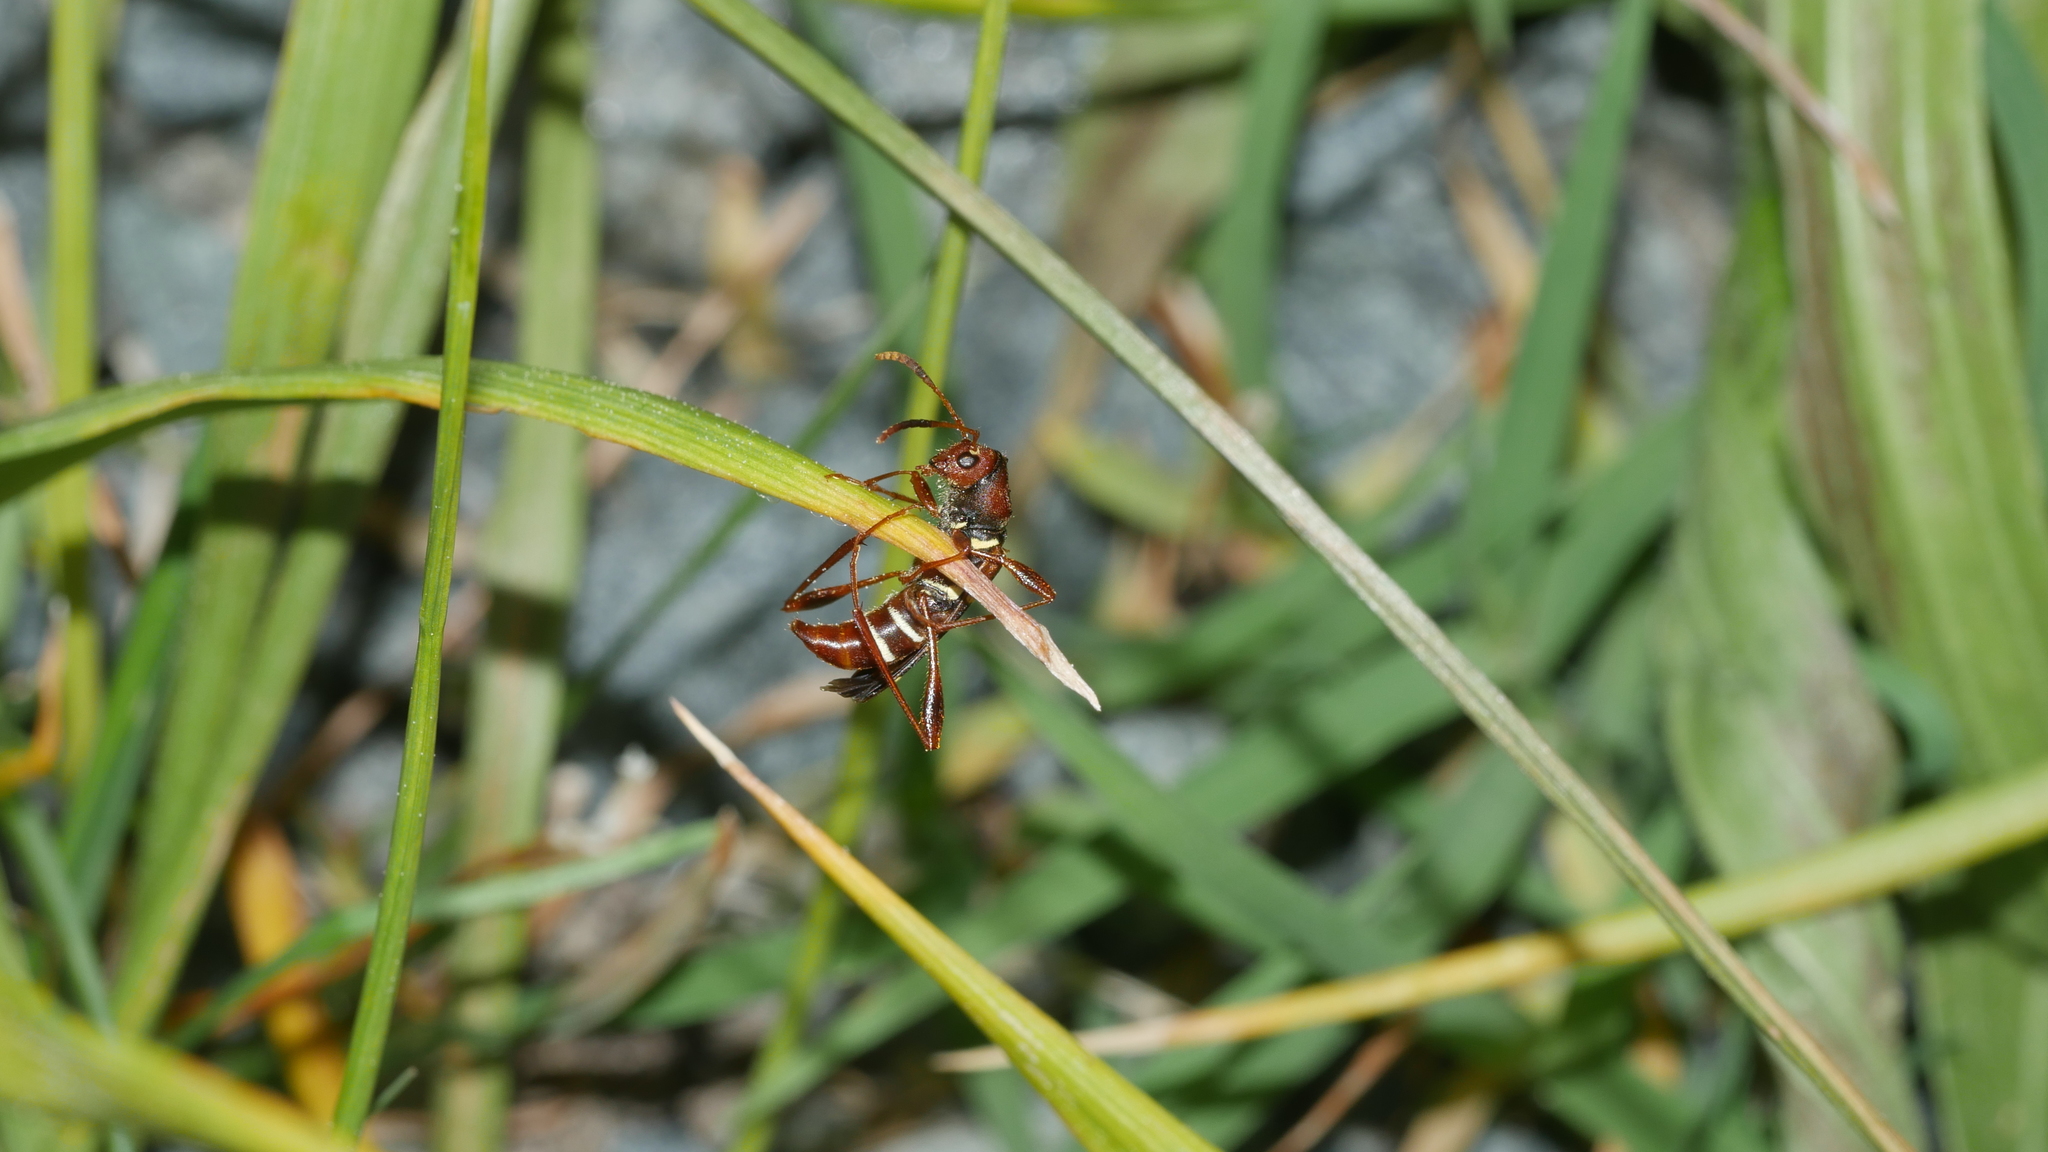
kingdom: Animalia
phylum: Arthropoda
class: Insecta
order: Coleoptera
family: Cerambycidae
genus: Neoclytus
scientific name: Neoclytus acuminatus
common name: Read-headed ash borer
